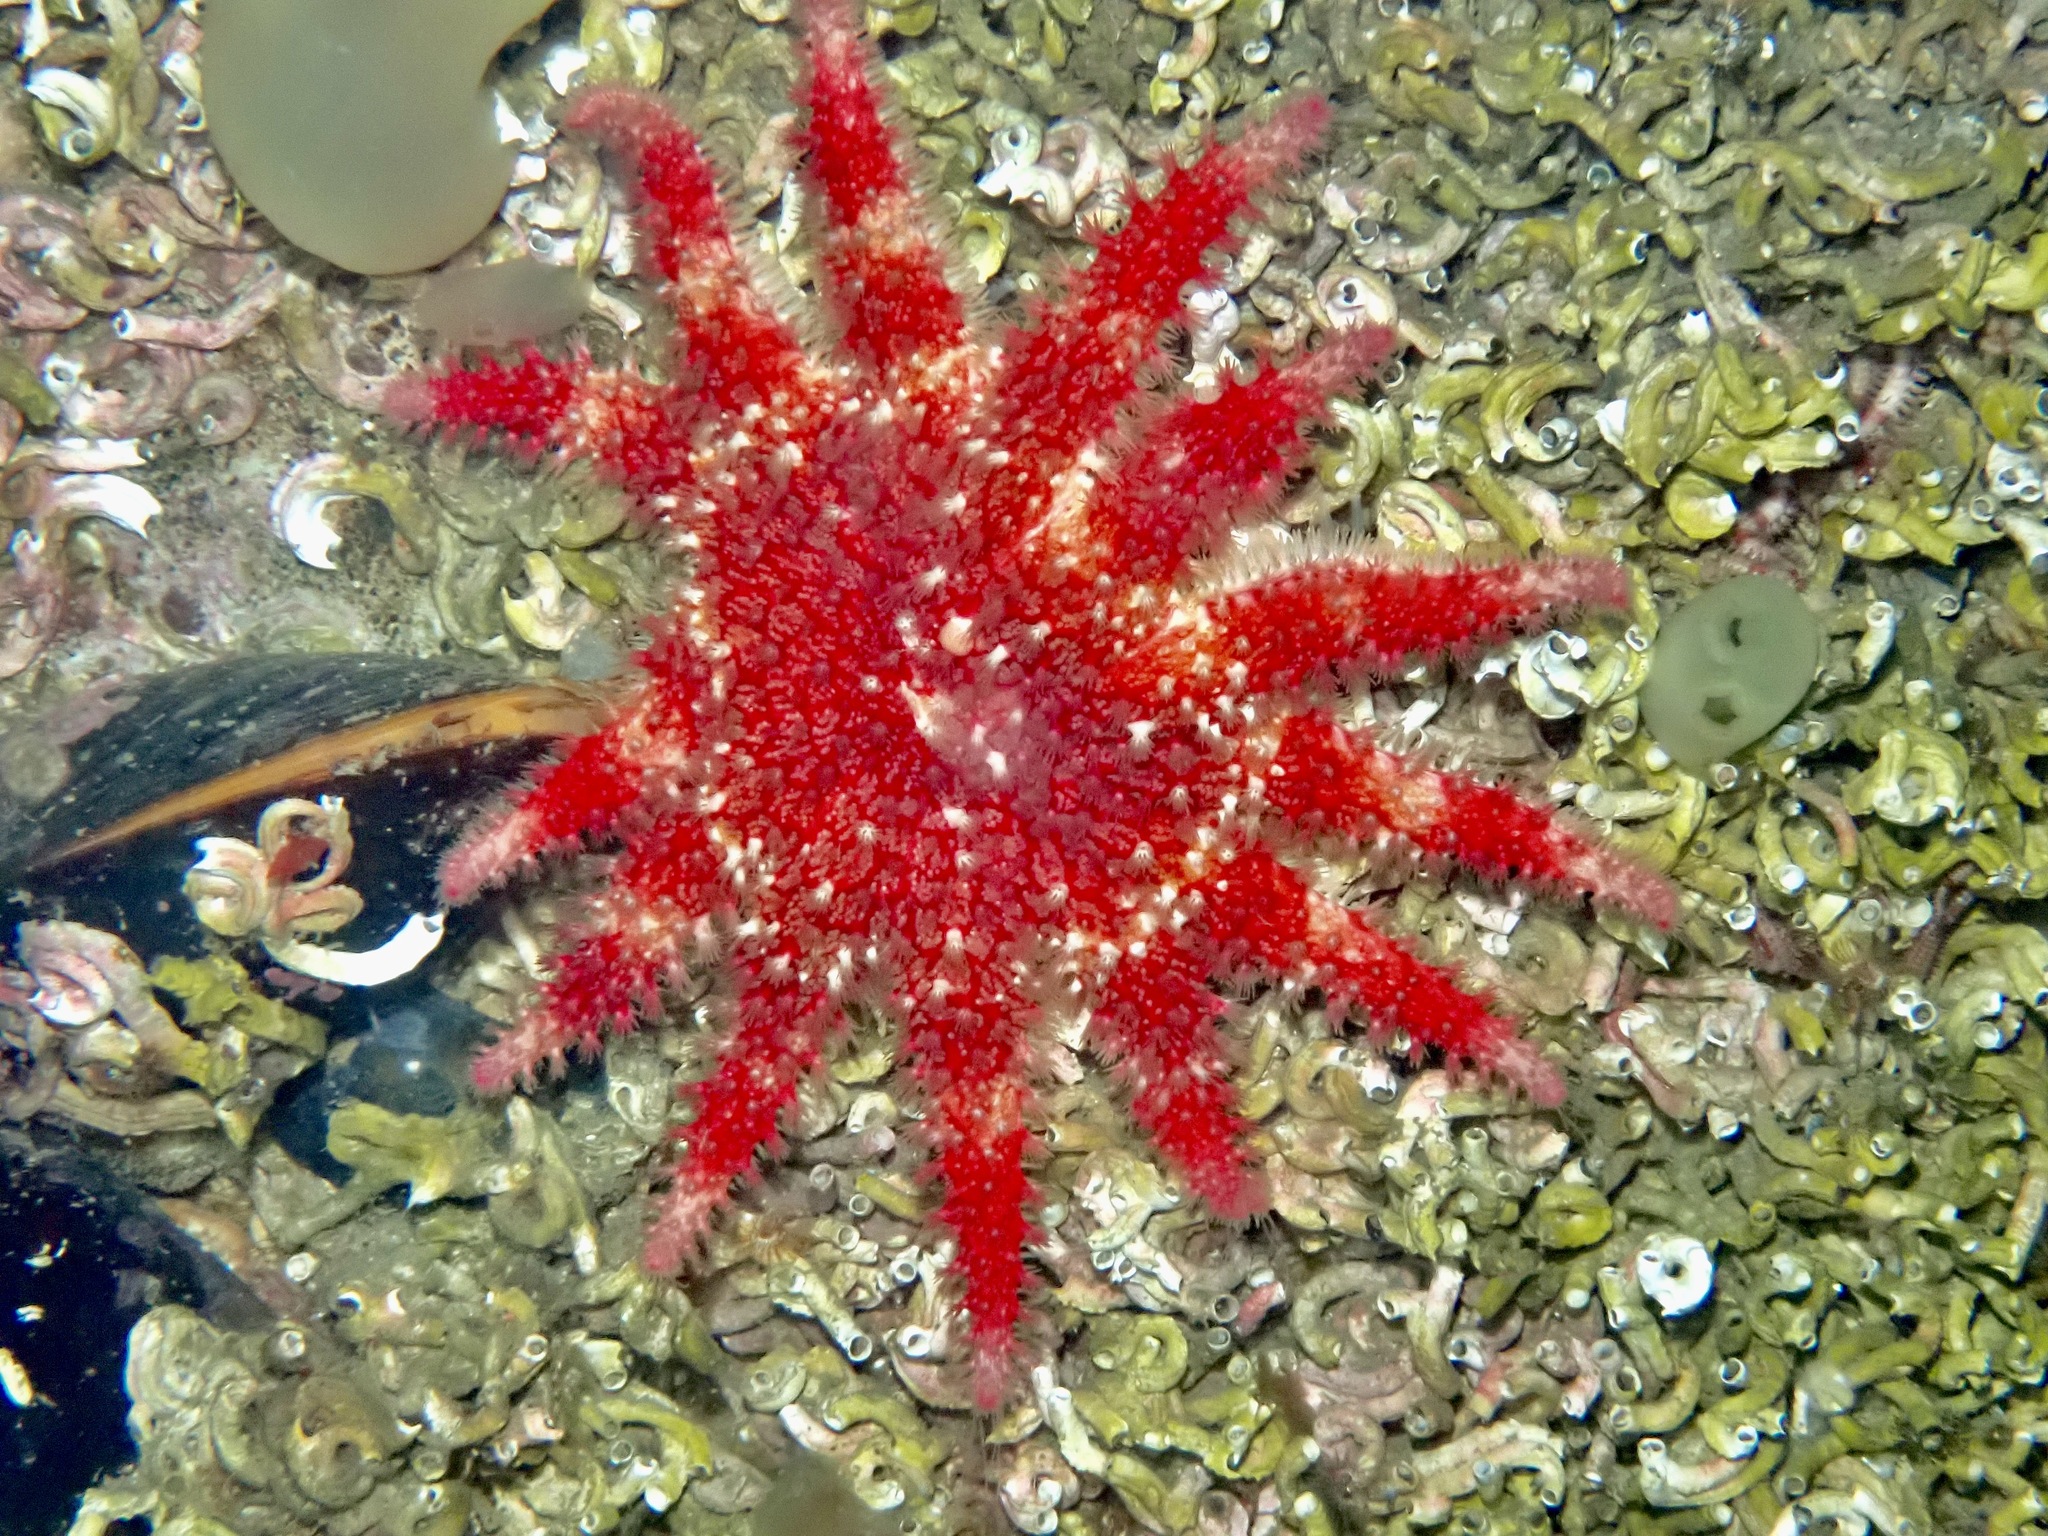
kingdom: Animalia
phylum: Echinodermata
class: Asteroidea
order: Valvatida
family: Solasteridae
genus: Crossaster
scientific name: Crossaster papposus
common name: Common sun star
